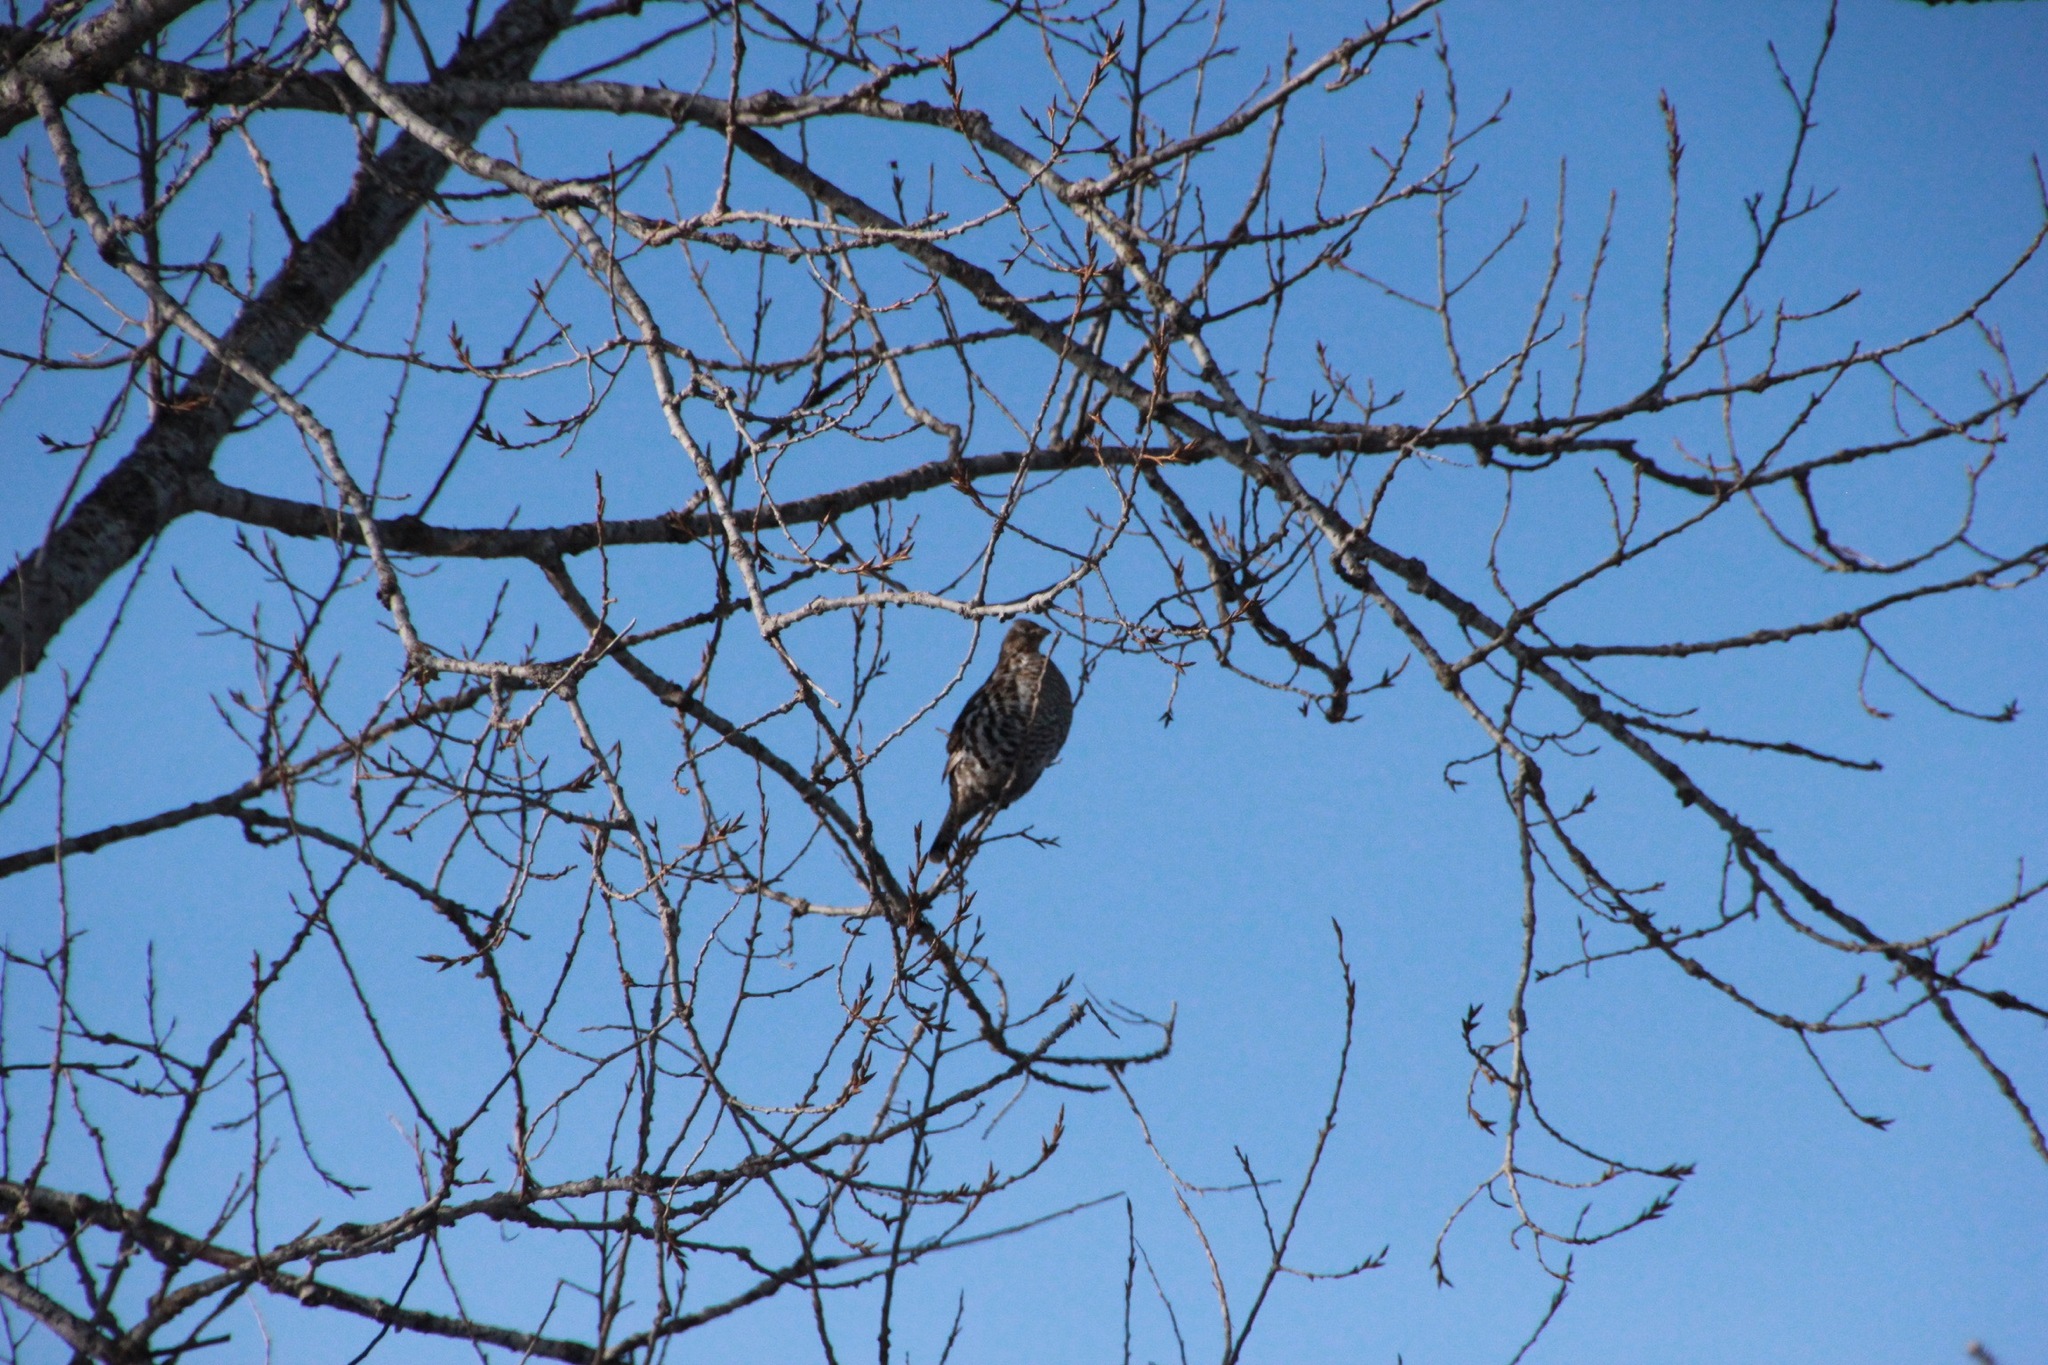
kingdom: Animalia
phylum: Chordata
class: Aves
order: Galliformes
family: Phasianidae
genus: Bonasa
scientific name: Bonasa umbellus
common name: Ruffed grouse
